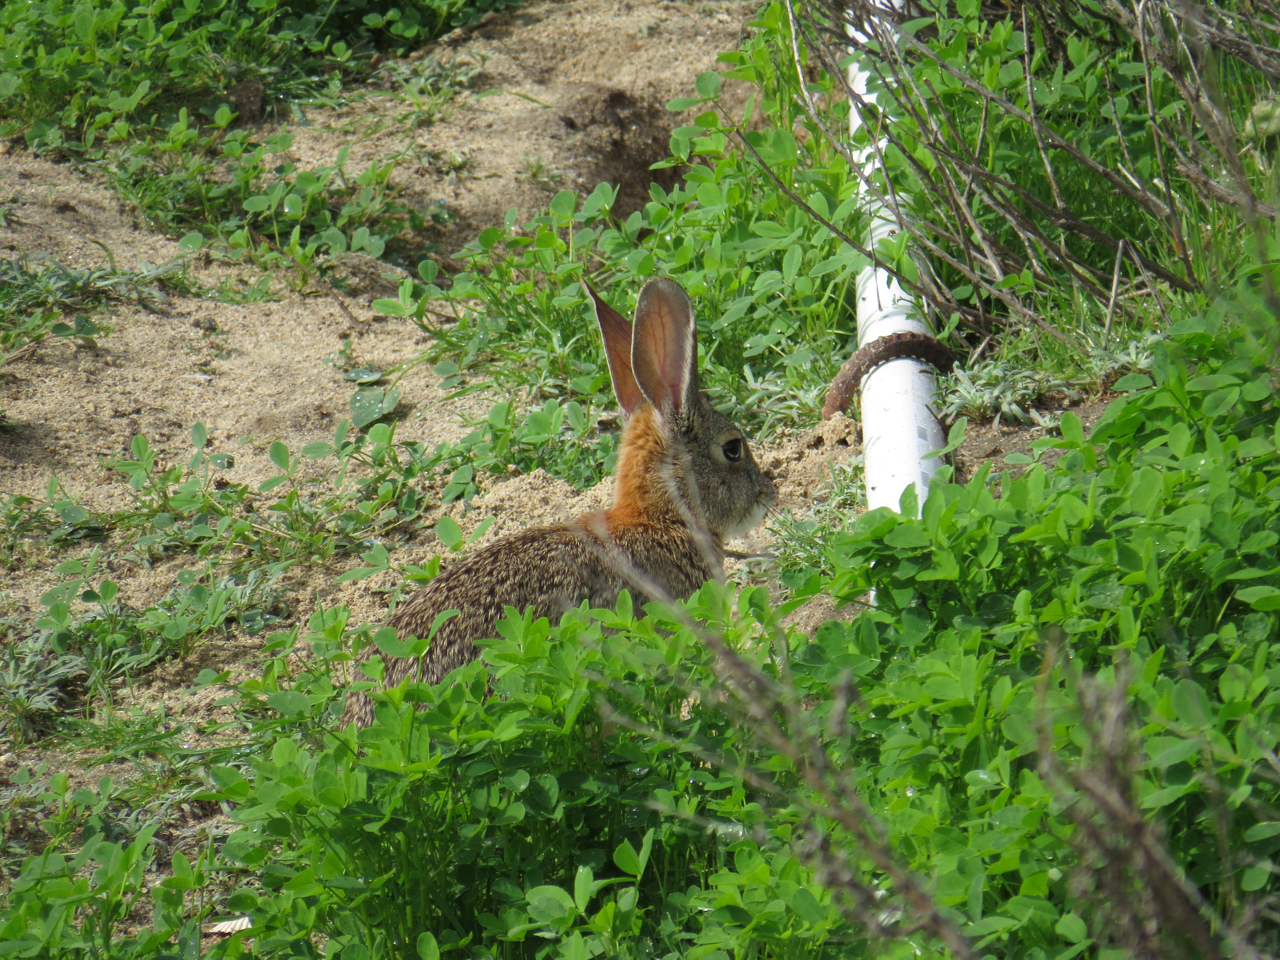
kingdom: Animalia
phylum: Chordata
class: Mammalia
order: Lagomorpha
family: Leporidae
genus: Sylvilagus
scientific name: Sylvilagus audubonii
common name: Desert cottontail
